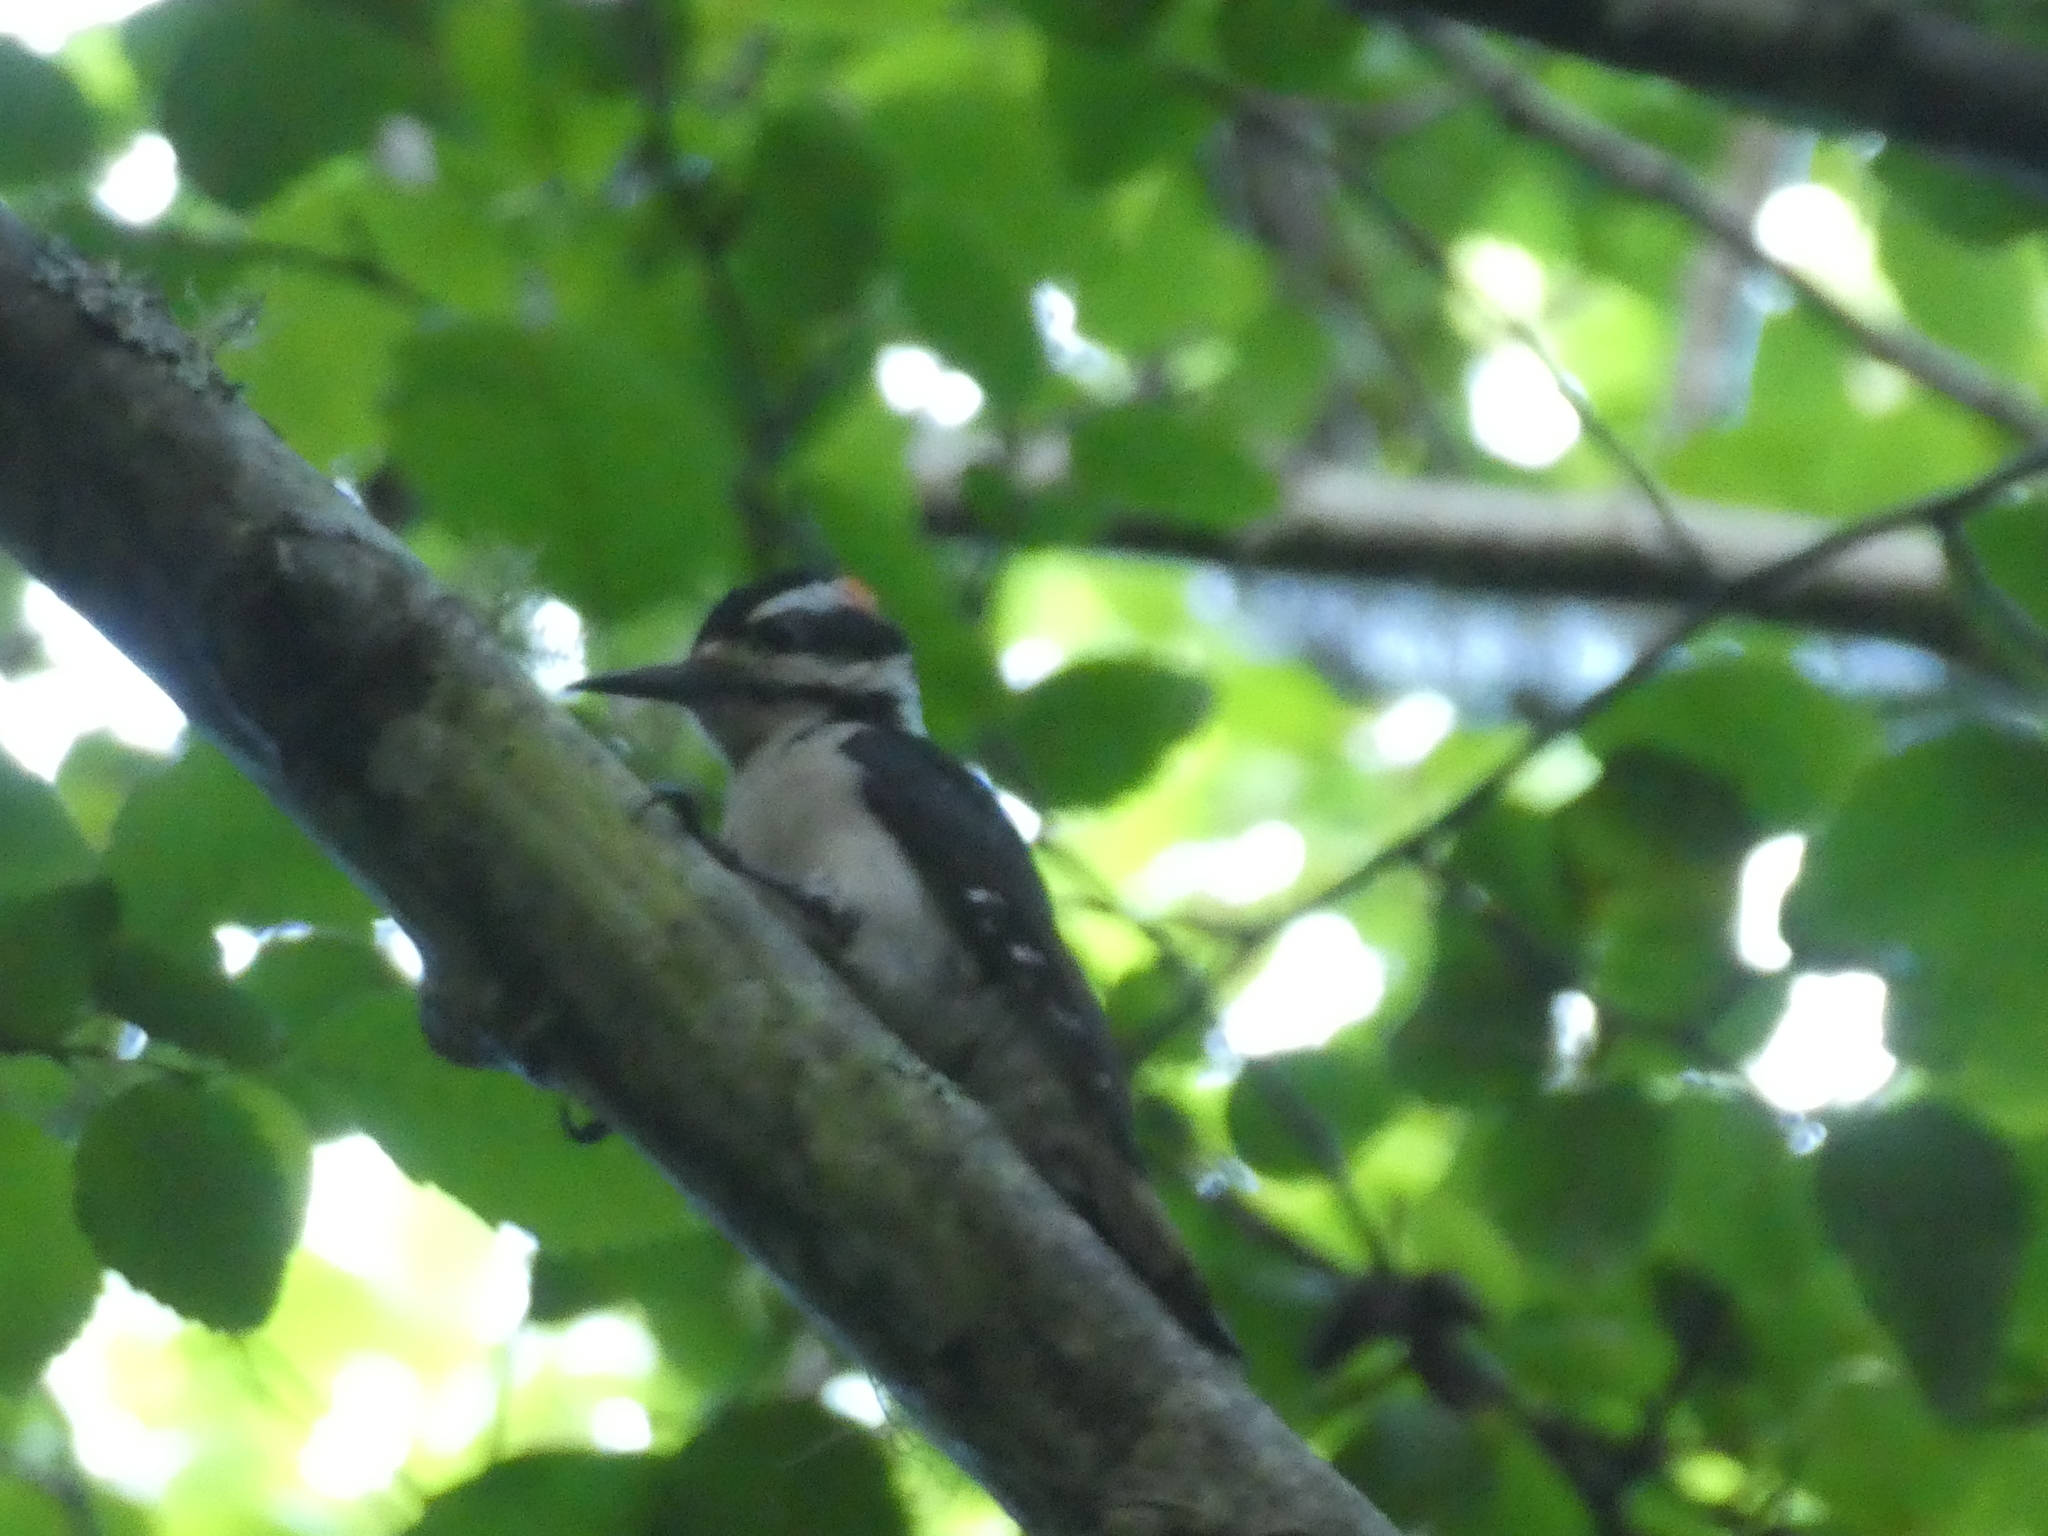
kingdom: Animalia
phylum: Chordata
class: Aves
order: Piciformes
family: Picidae
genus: Leuconotopicus
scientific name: Leuconotopicus villosus
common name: Hairy woodpecker
